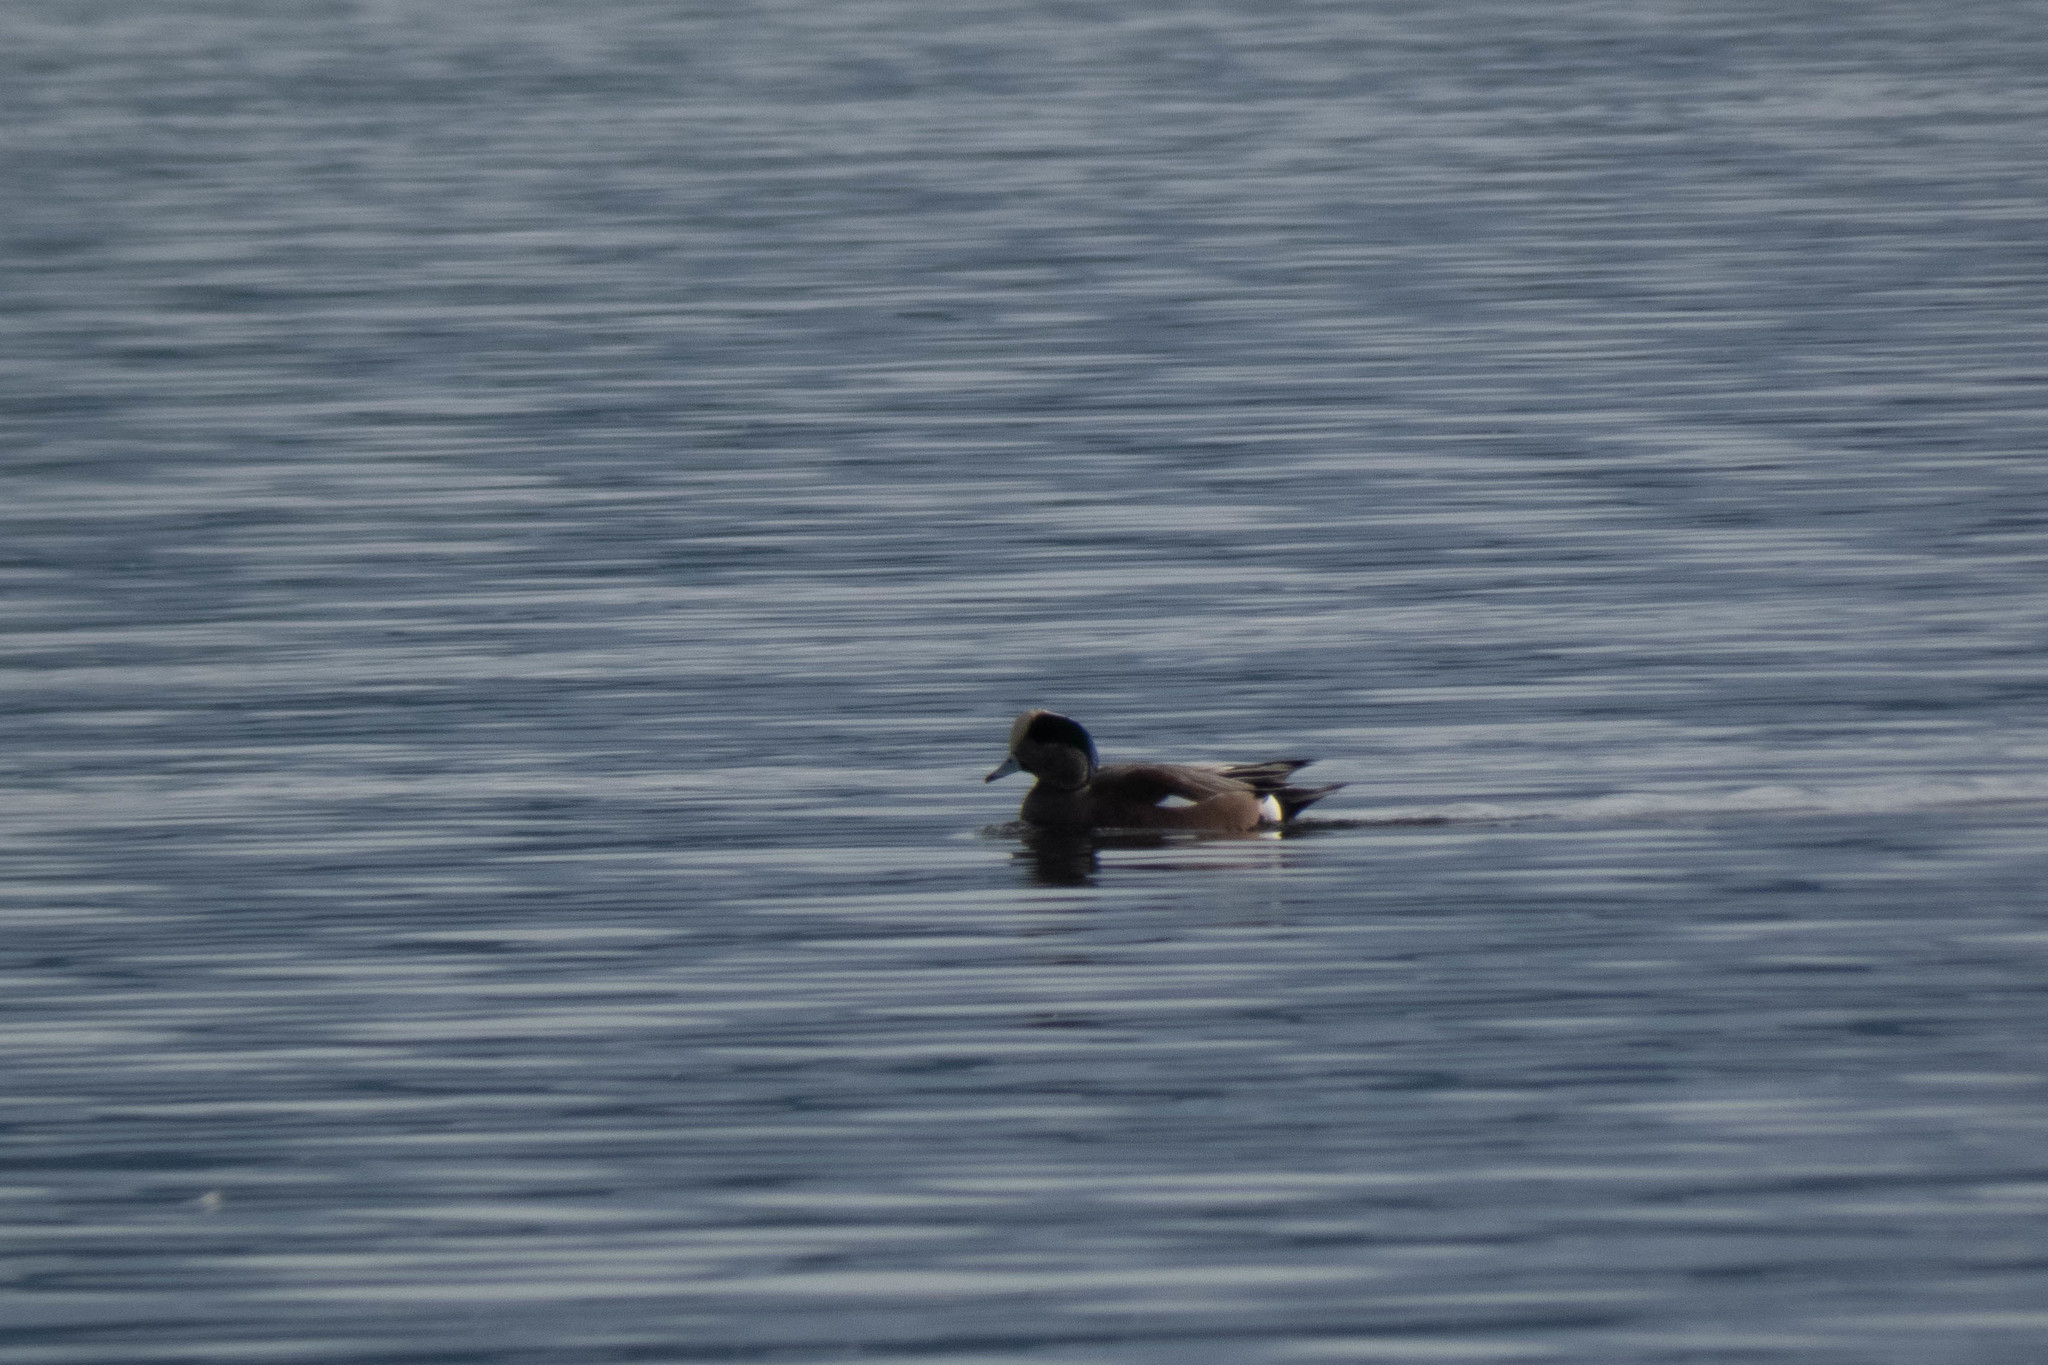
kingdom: Animalia
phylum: Chordata
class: Aves
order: Anseriformes
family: Anatidae
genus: Mareca
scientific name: Mareca americana
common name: American wigeon
